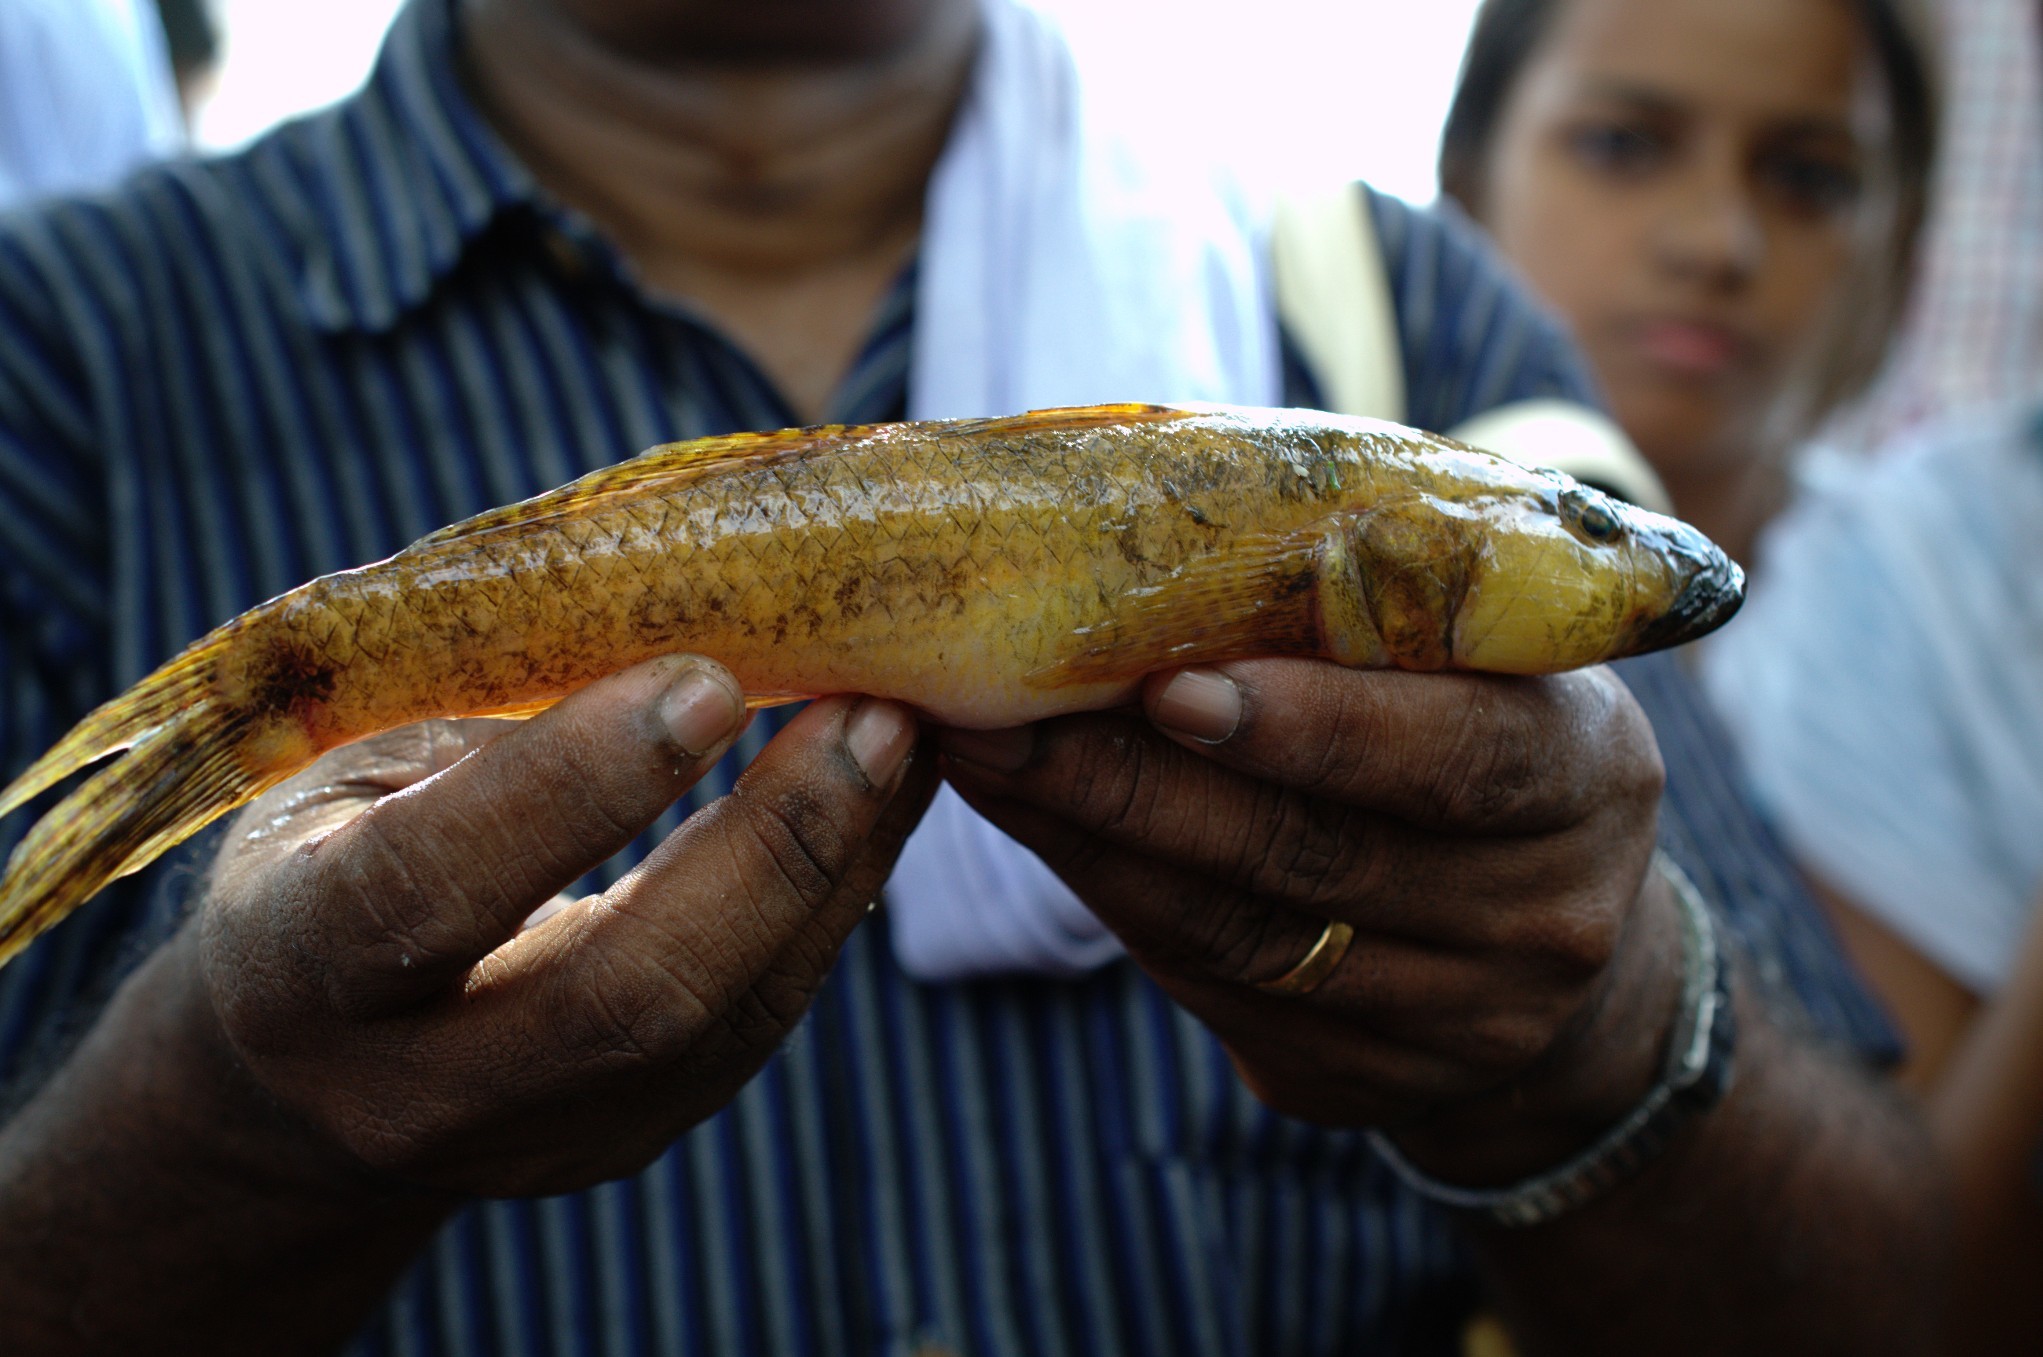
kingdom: Animalia
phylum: Chordata
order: Perciformes
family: Gobiidae
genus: Glossogobius
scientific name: Glossogobius giuris
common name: Tank goby
